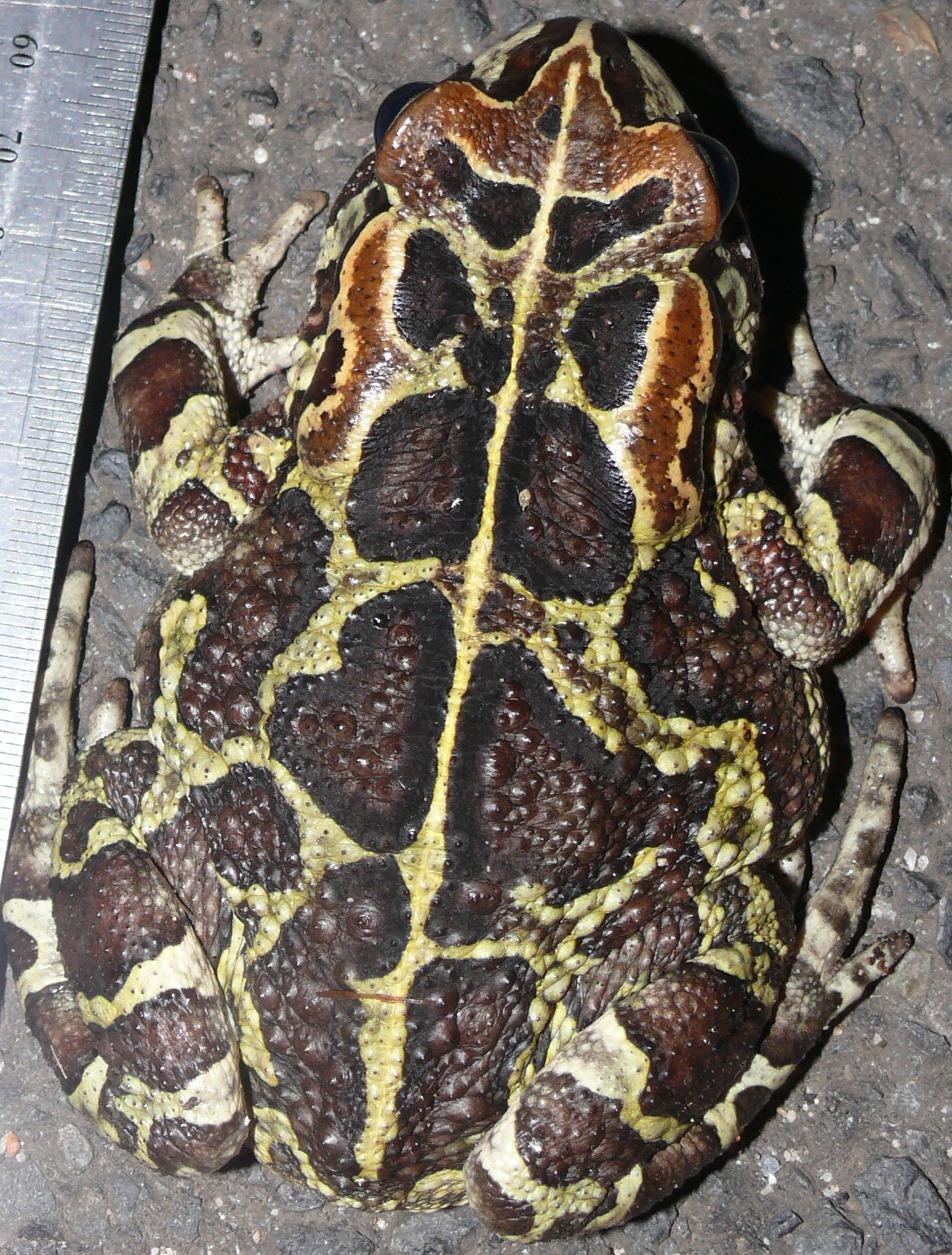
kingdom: Animalia
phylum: Chordata
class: Amphibia
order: Anura
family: Bufonidae
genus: Sclerophrys
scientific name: Sclerophrys pantherina
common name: Panther toad
